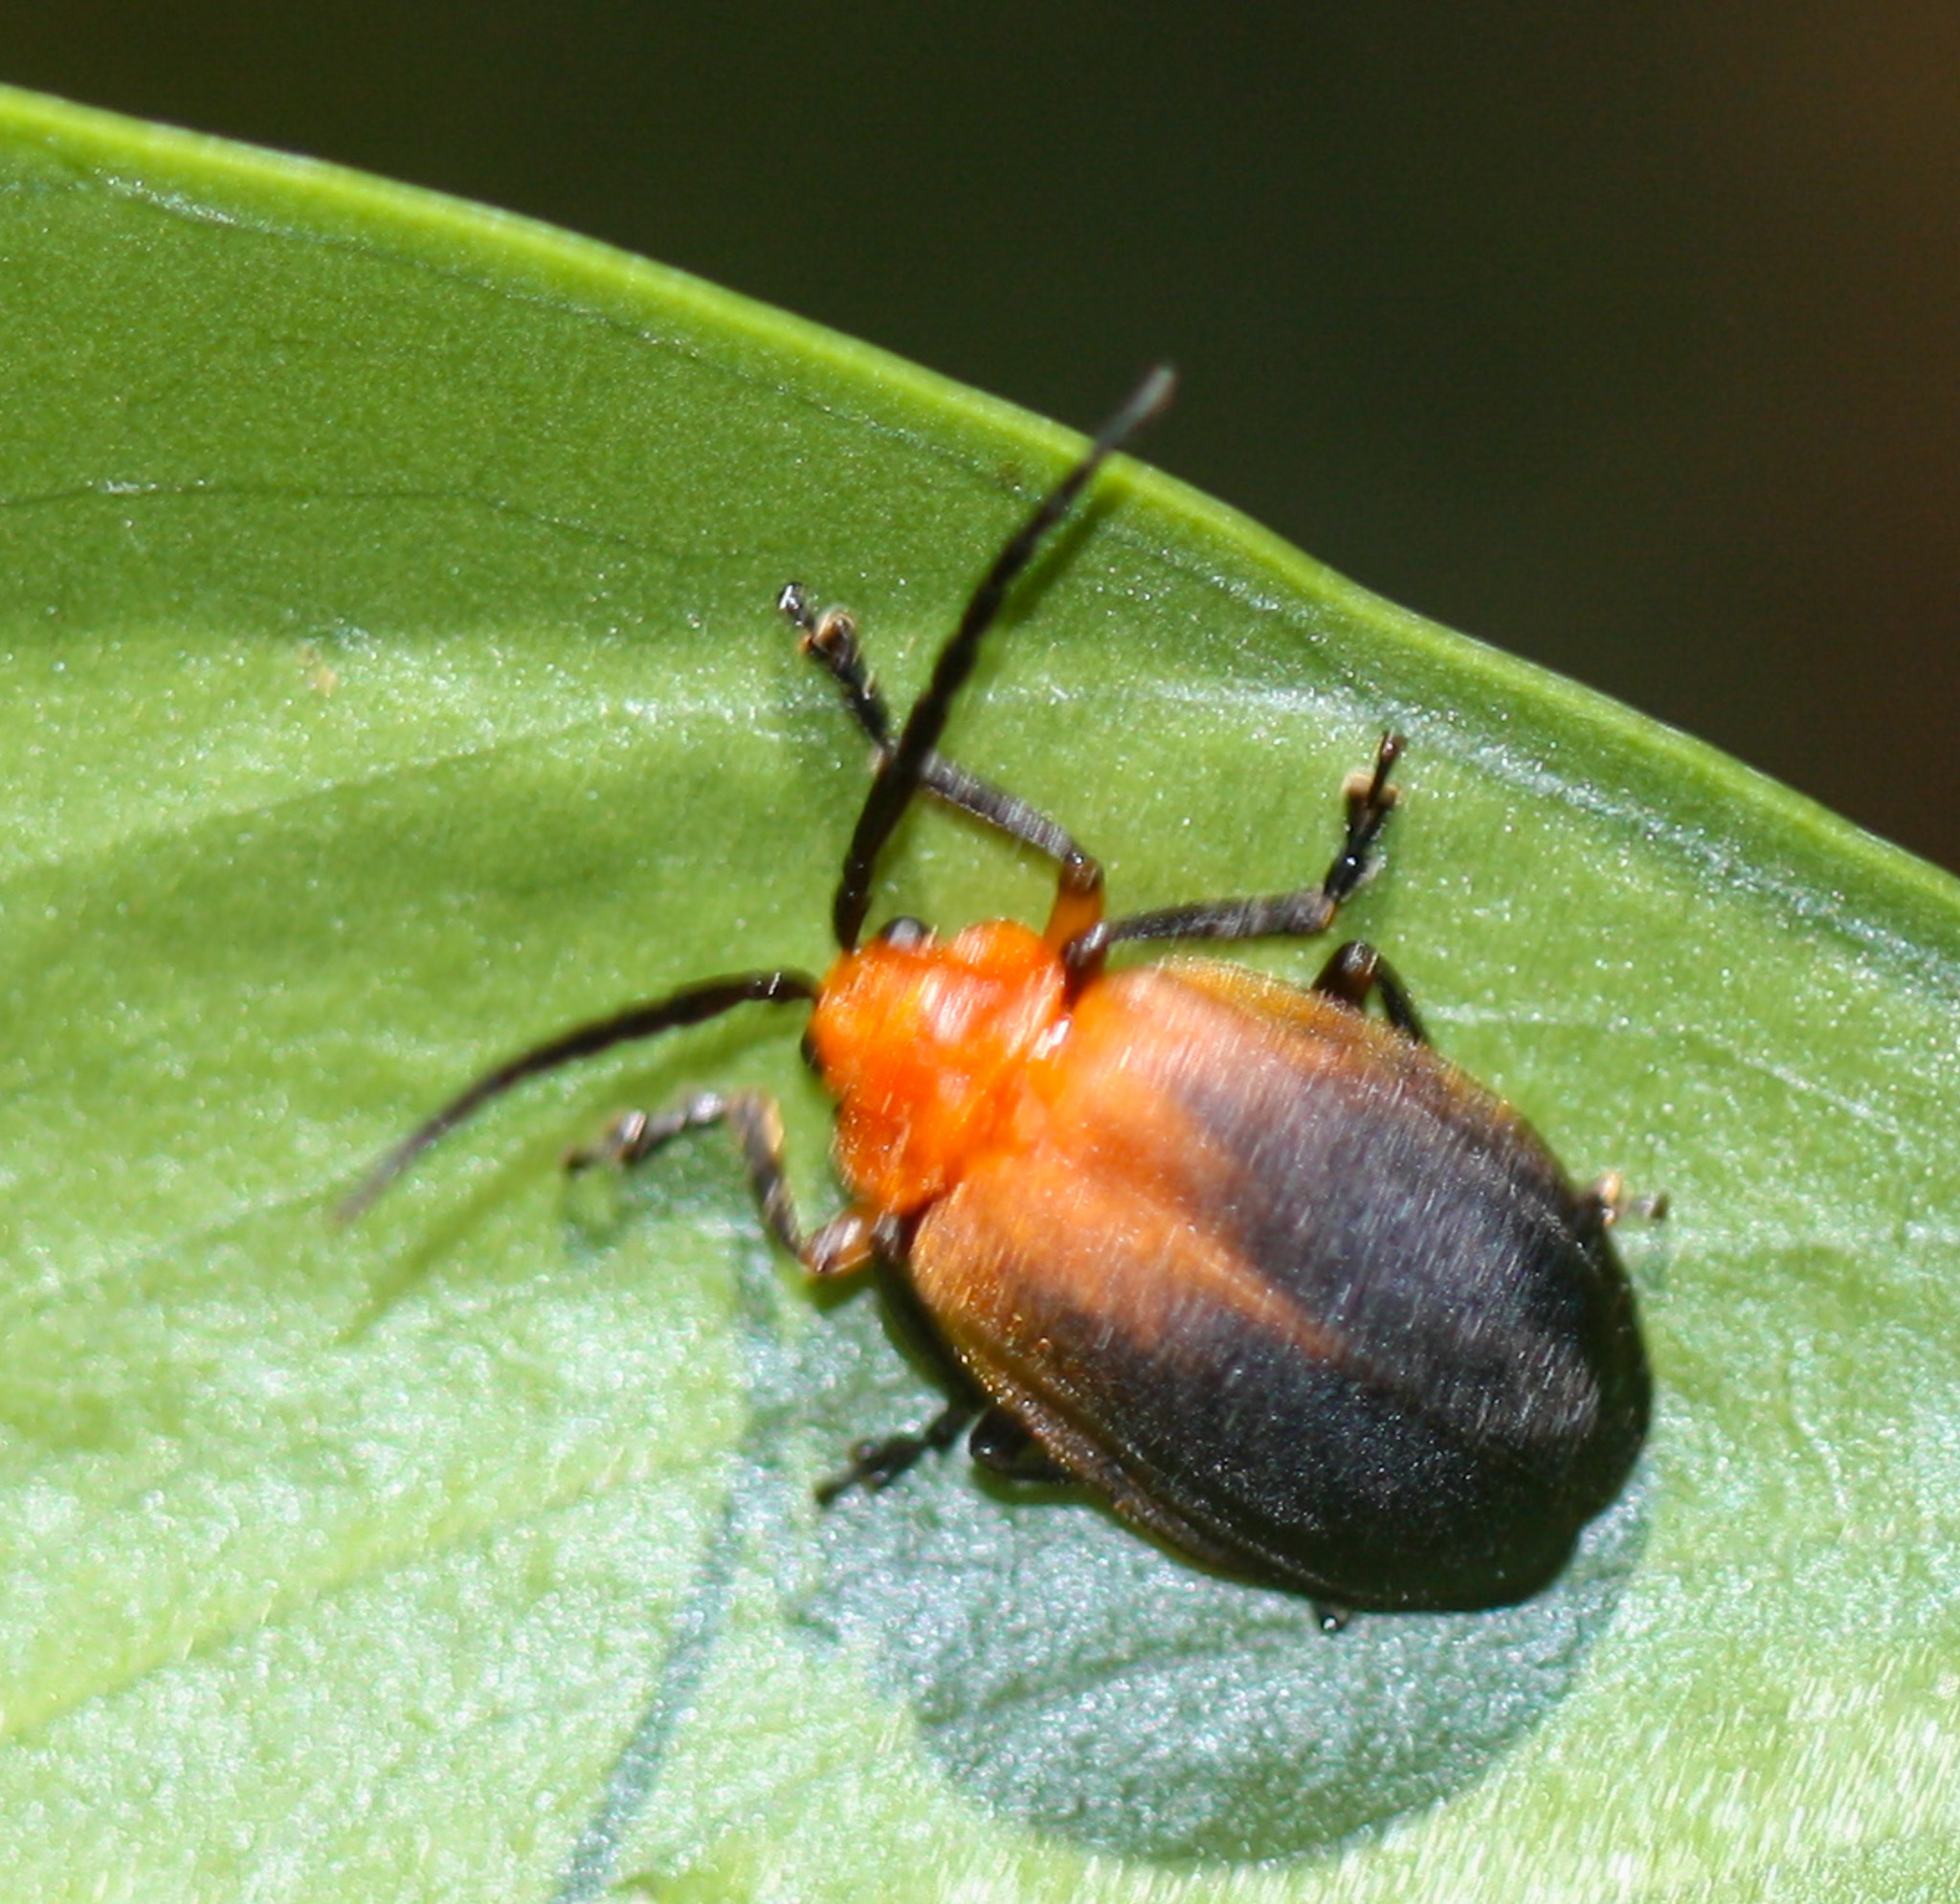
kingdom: Animalia
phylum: Arthropoda
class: Insecta
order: Coleoptera
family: Chrysomelidae
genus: Platycesta
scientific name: Platycesta
